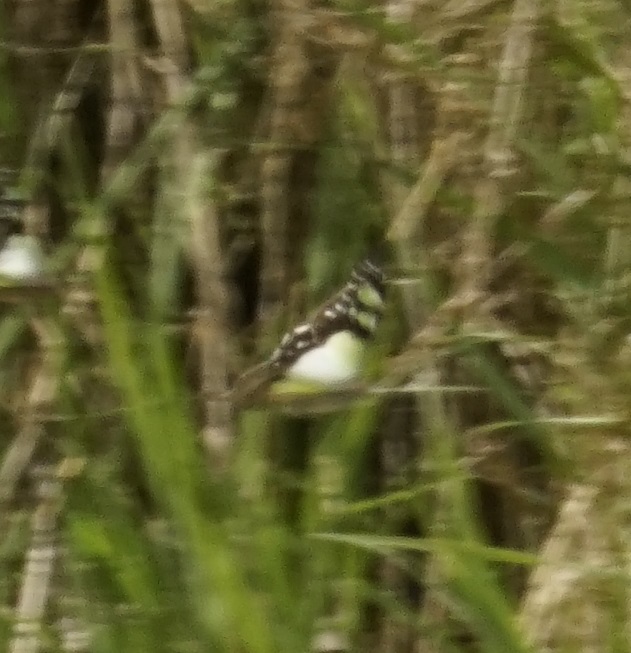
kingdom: Animalia
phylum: Arthropoda
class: Insecta
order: Lepidoptera
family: Papilionidae
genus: Graphium
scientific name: Graphium macleayanus
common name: Macleay's swallowtail
